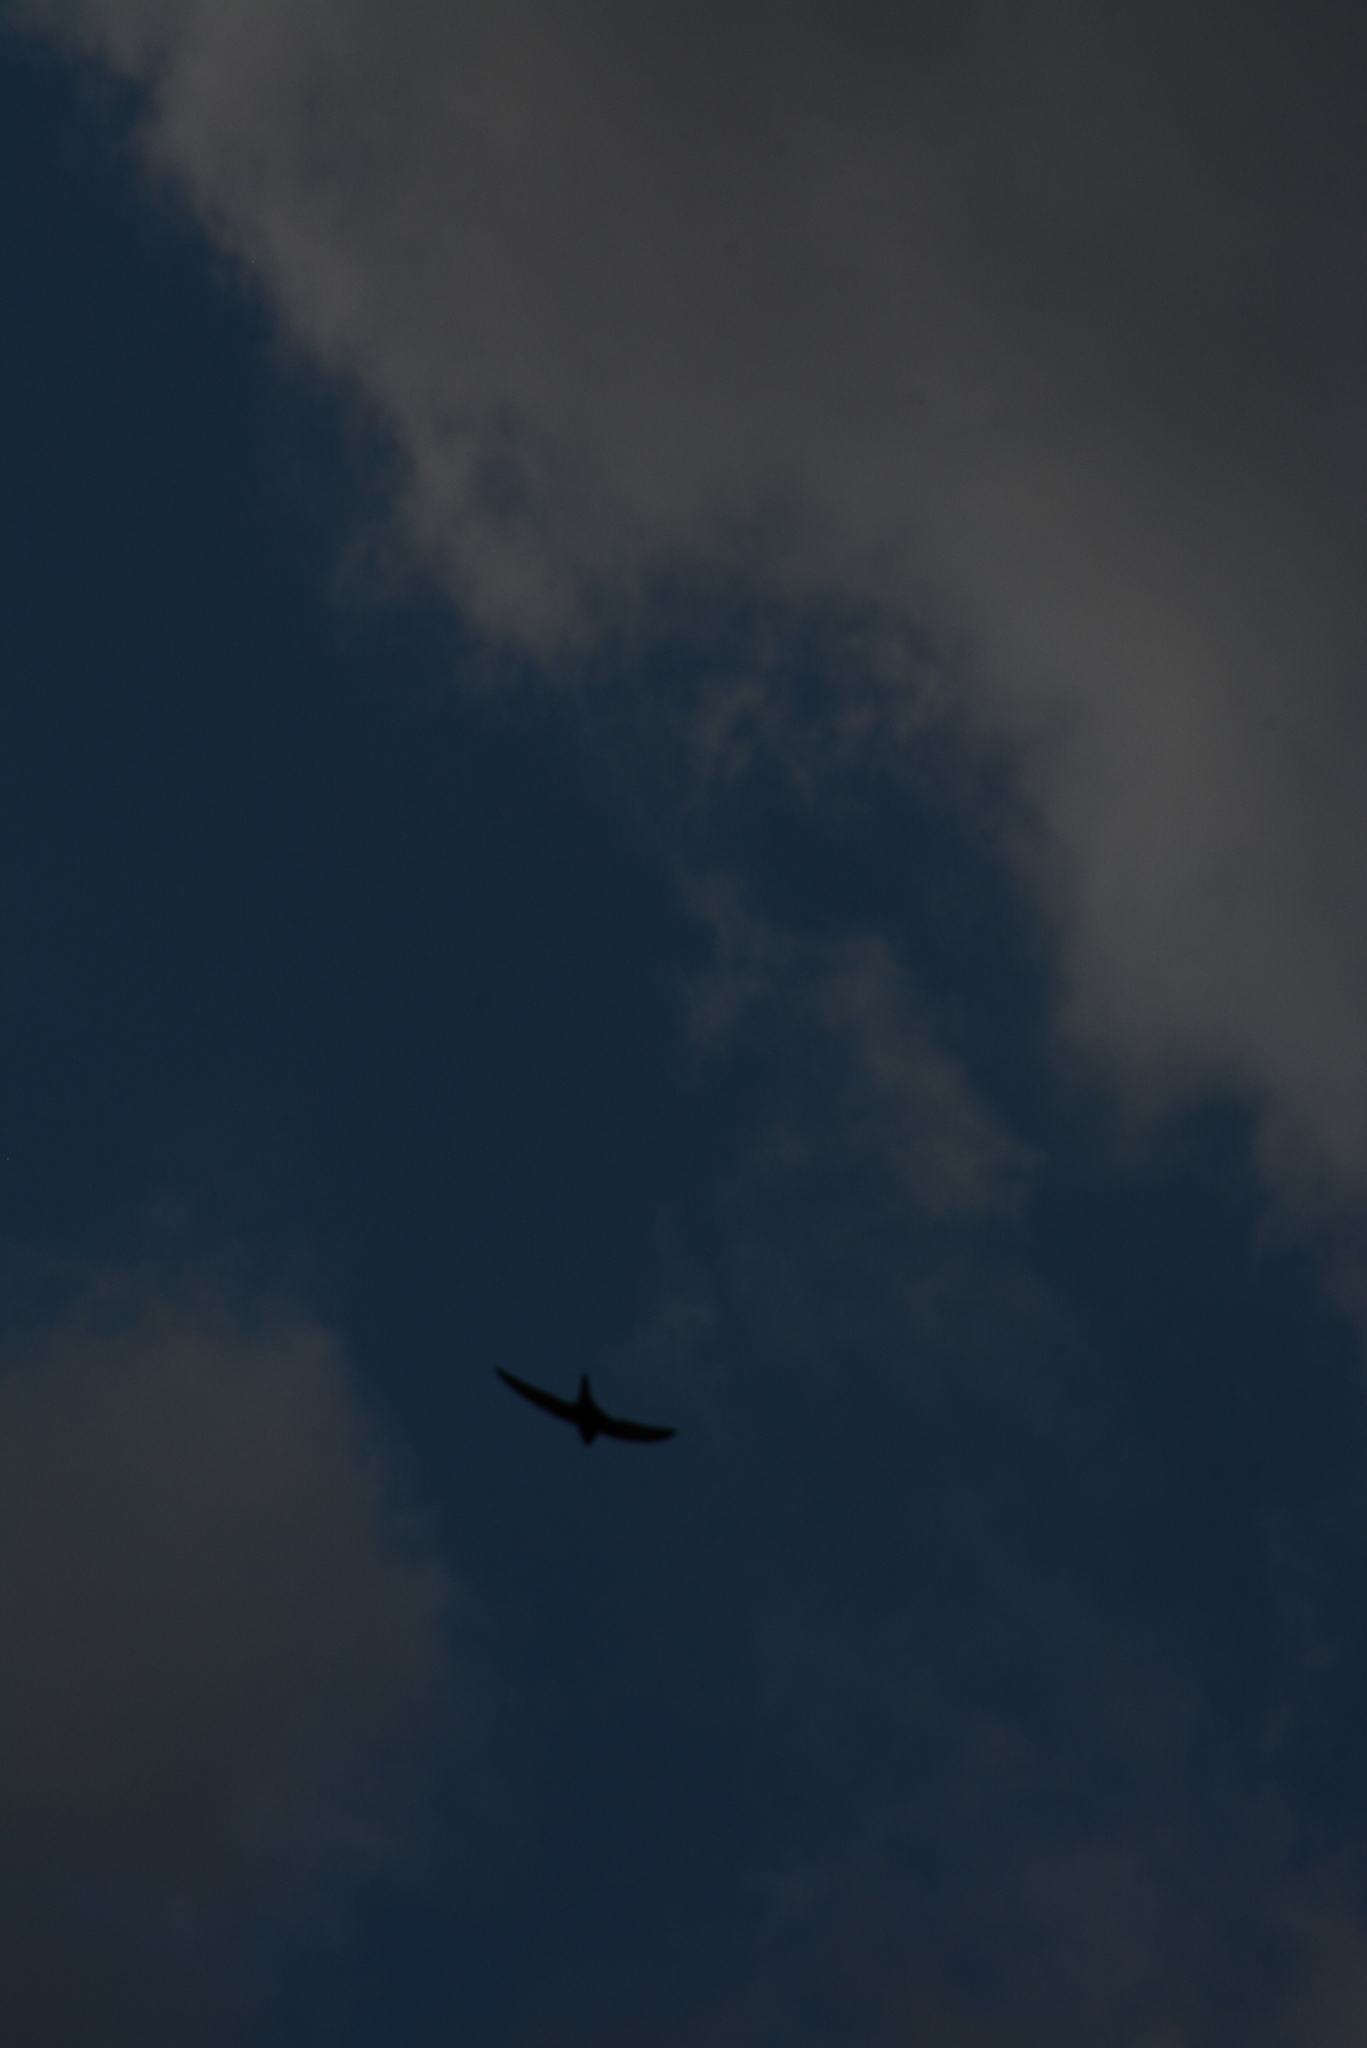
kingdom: Animalia
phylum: Chordata
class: Aves
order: Apodiformes
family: Apodidae
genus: Apus
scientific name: Apus apus
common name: Common swift
